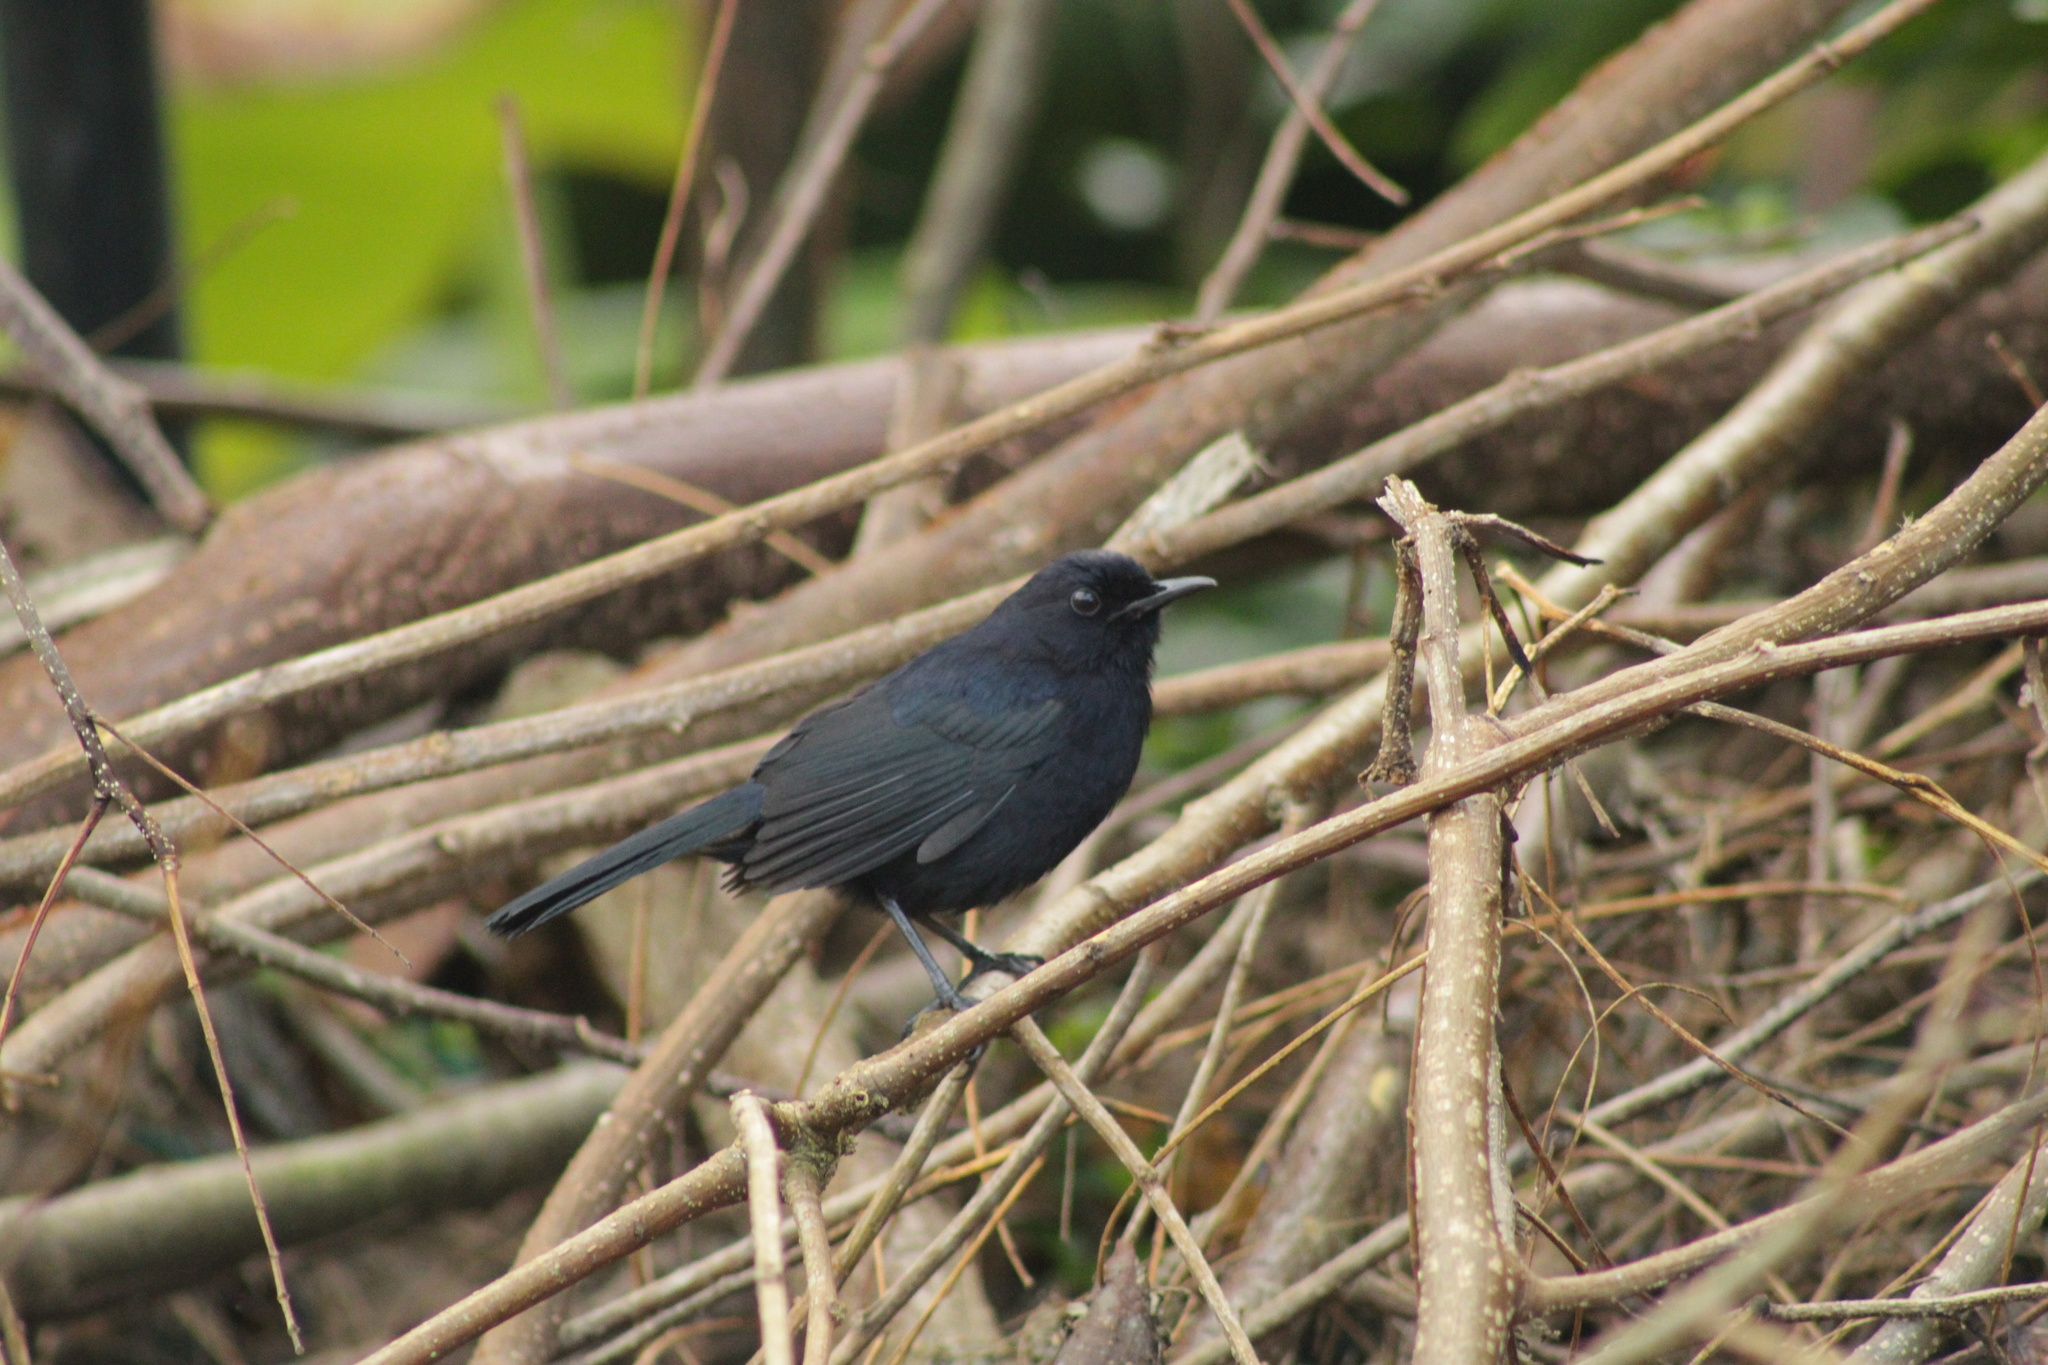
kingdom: Animalia
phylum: Chordata
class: Aves
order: Passeriformes
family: Mimidae
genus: Melanoptila
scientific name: Melanoptila glabrirostris
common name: Black catbird
